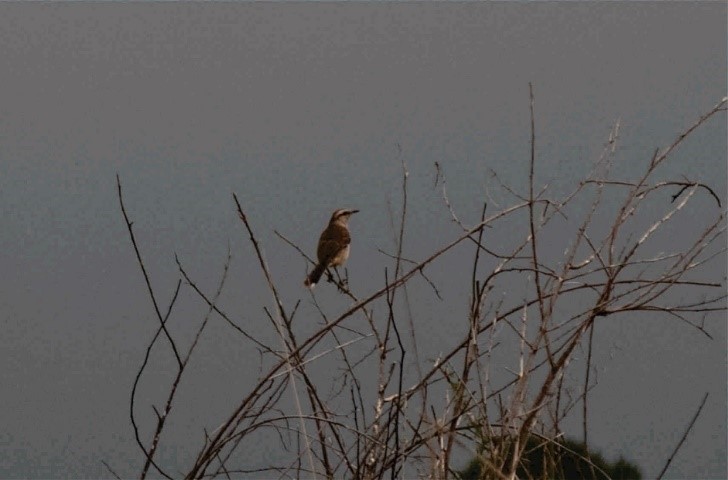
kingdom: Animalia
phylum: Chordata
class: Aves
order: Passeriformes
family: Mimidae
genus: Mimus
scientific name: Mimus saturninus
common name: Chalk-browed mockingbird
